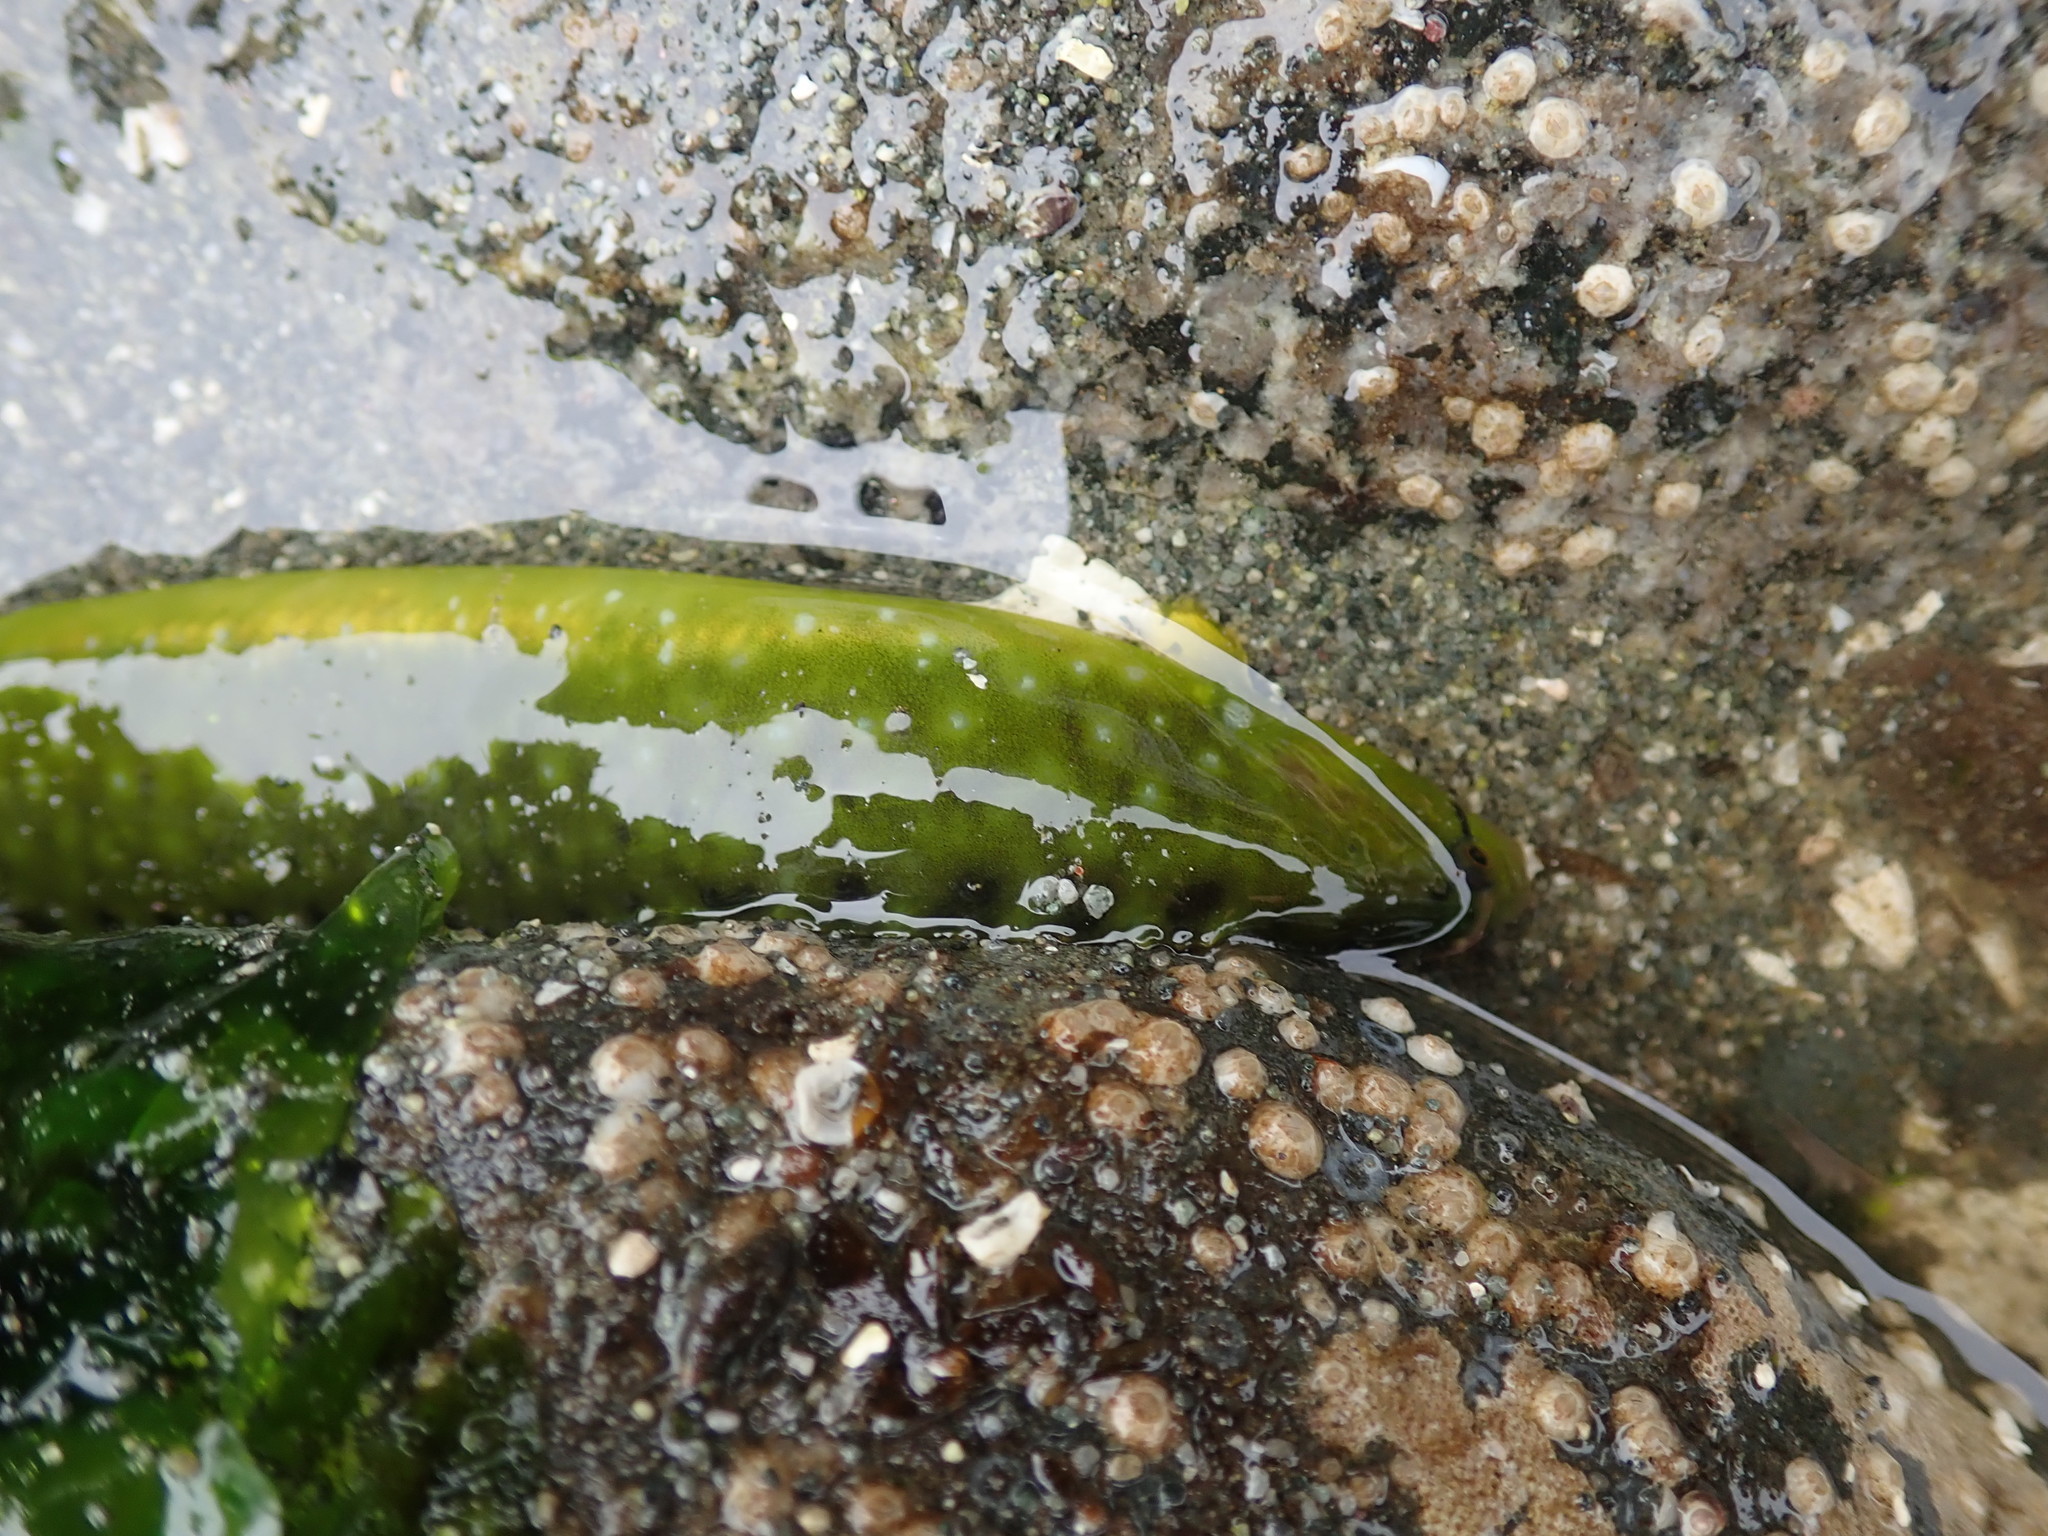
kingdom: Animalia
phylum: Chordata
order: Perciformes
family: Pholidae
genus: Apodichthys
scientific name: Apodichthys flavidus
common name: Penpoint gunnel
